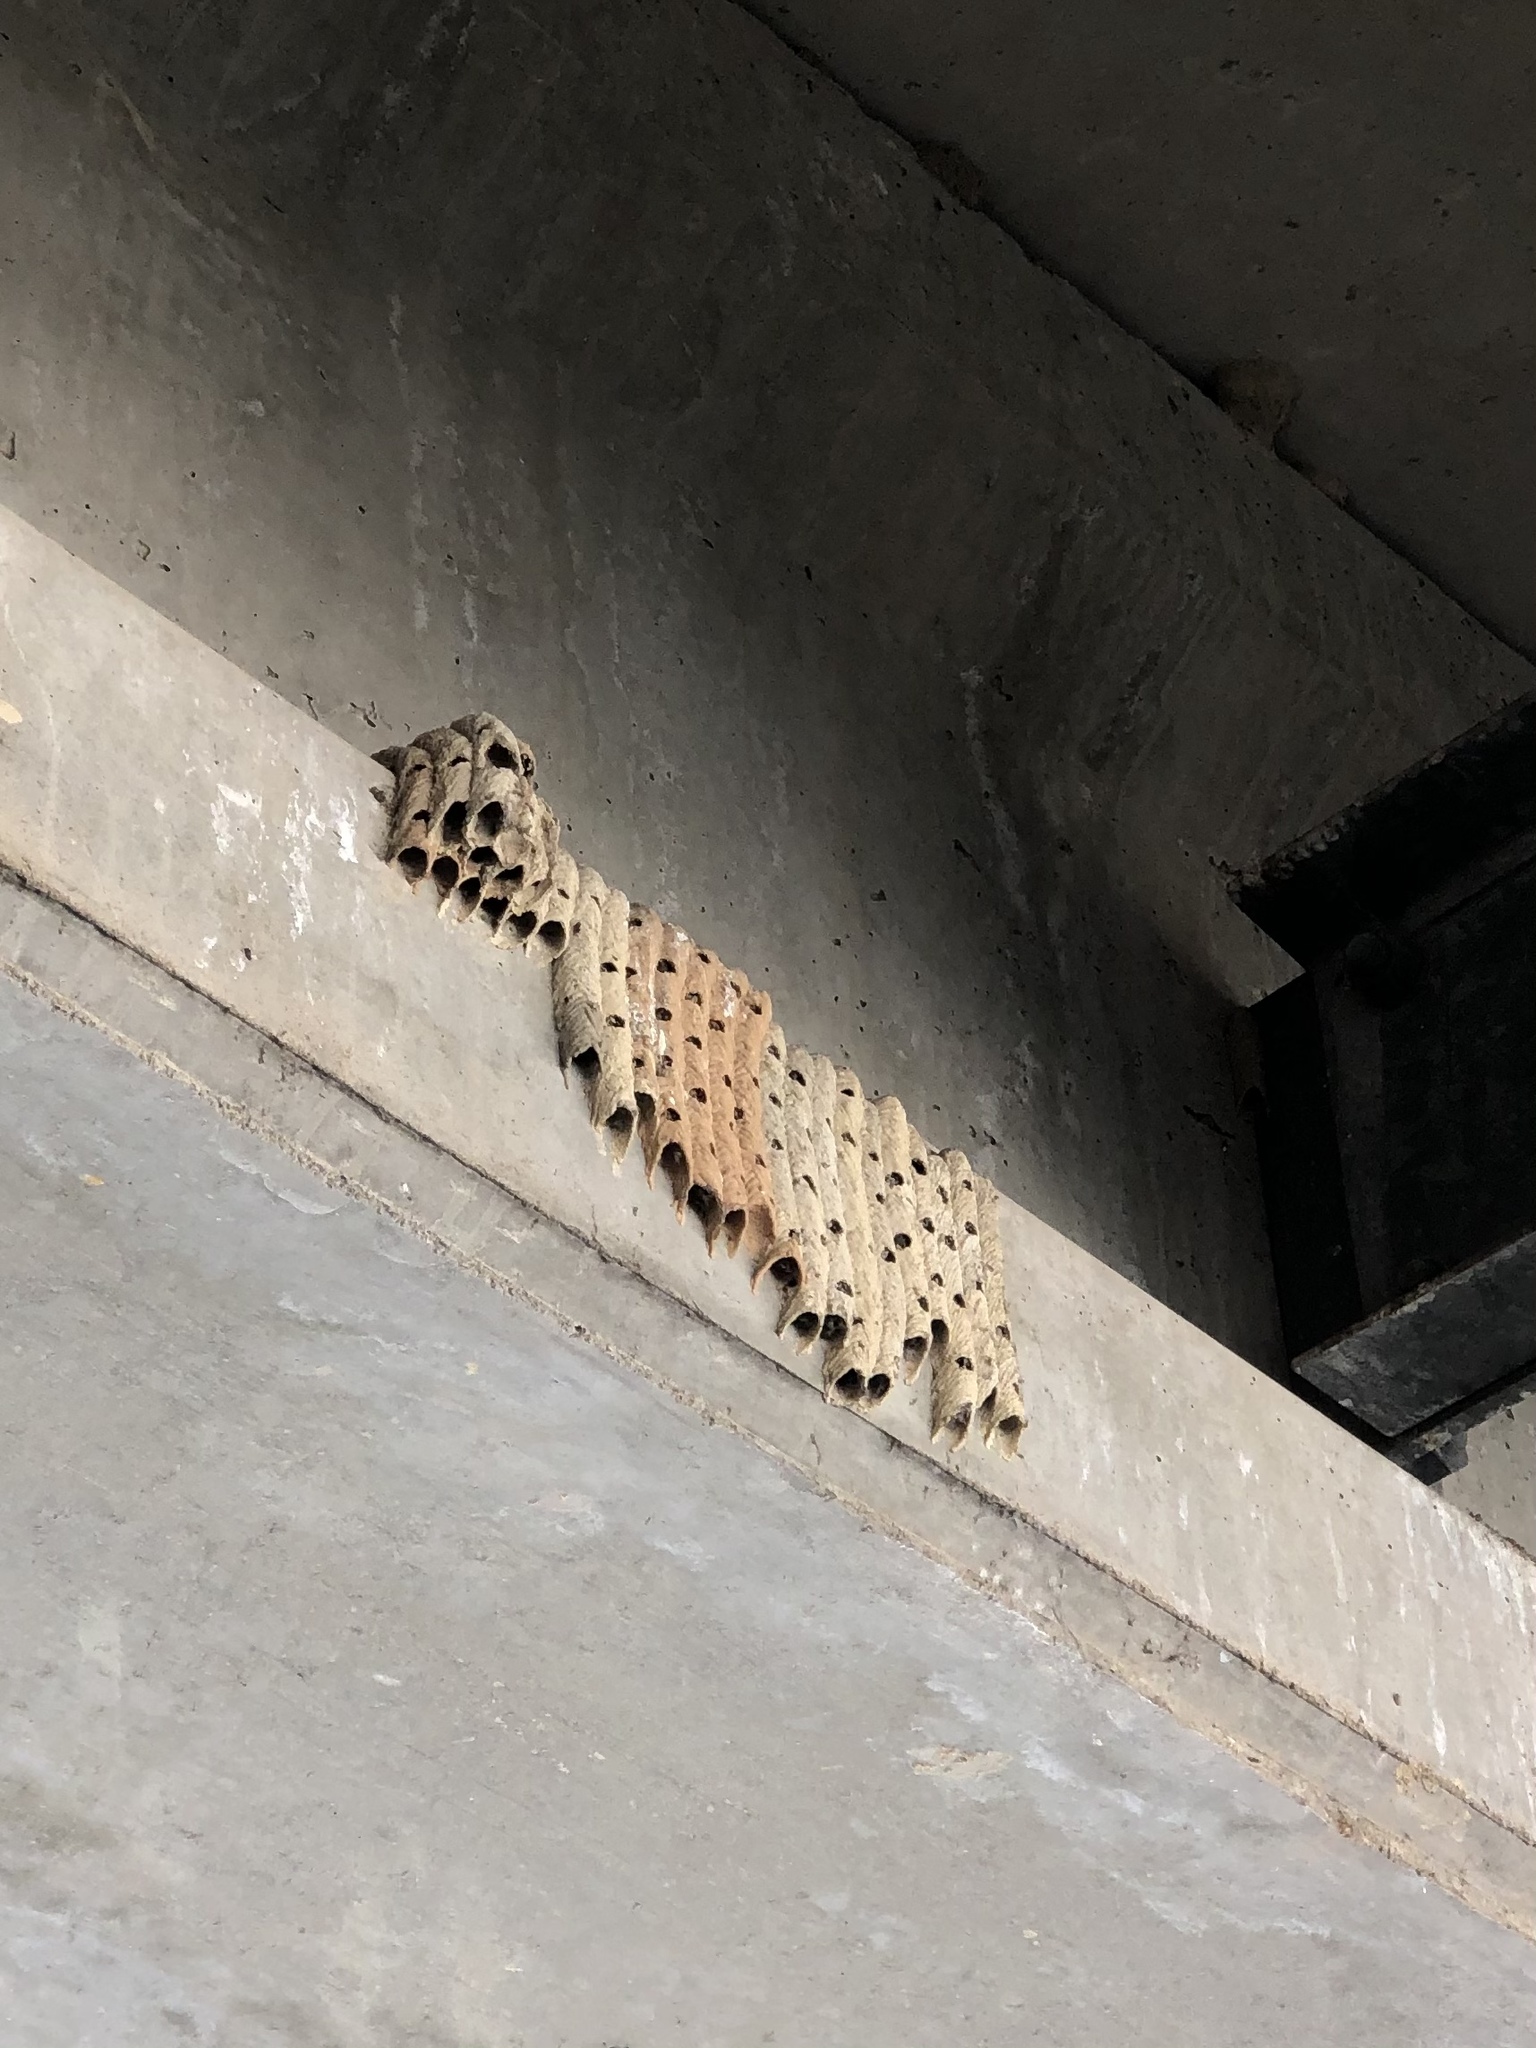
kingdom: Animalia
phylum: Arthropoda
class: Insecta
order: Hymenoptera
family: Crabronidae
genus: Trypoxylon
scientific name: Trypoxylon politum
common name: Organ-pipe mud-dauber wasp
